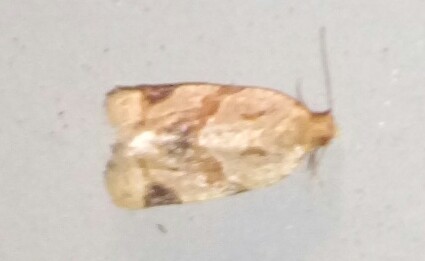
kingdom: Animalia
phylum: Arthropoda
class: Insecta
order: Lepidoptera
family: Tortricidae
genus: Clepsis
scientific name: Clepsis peritana
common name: Garden tortrix
